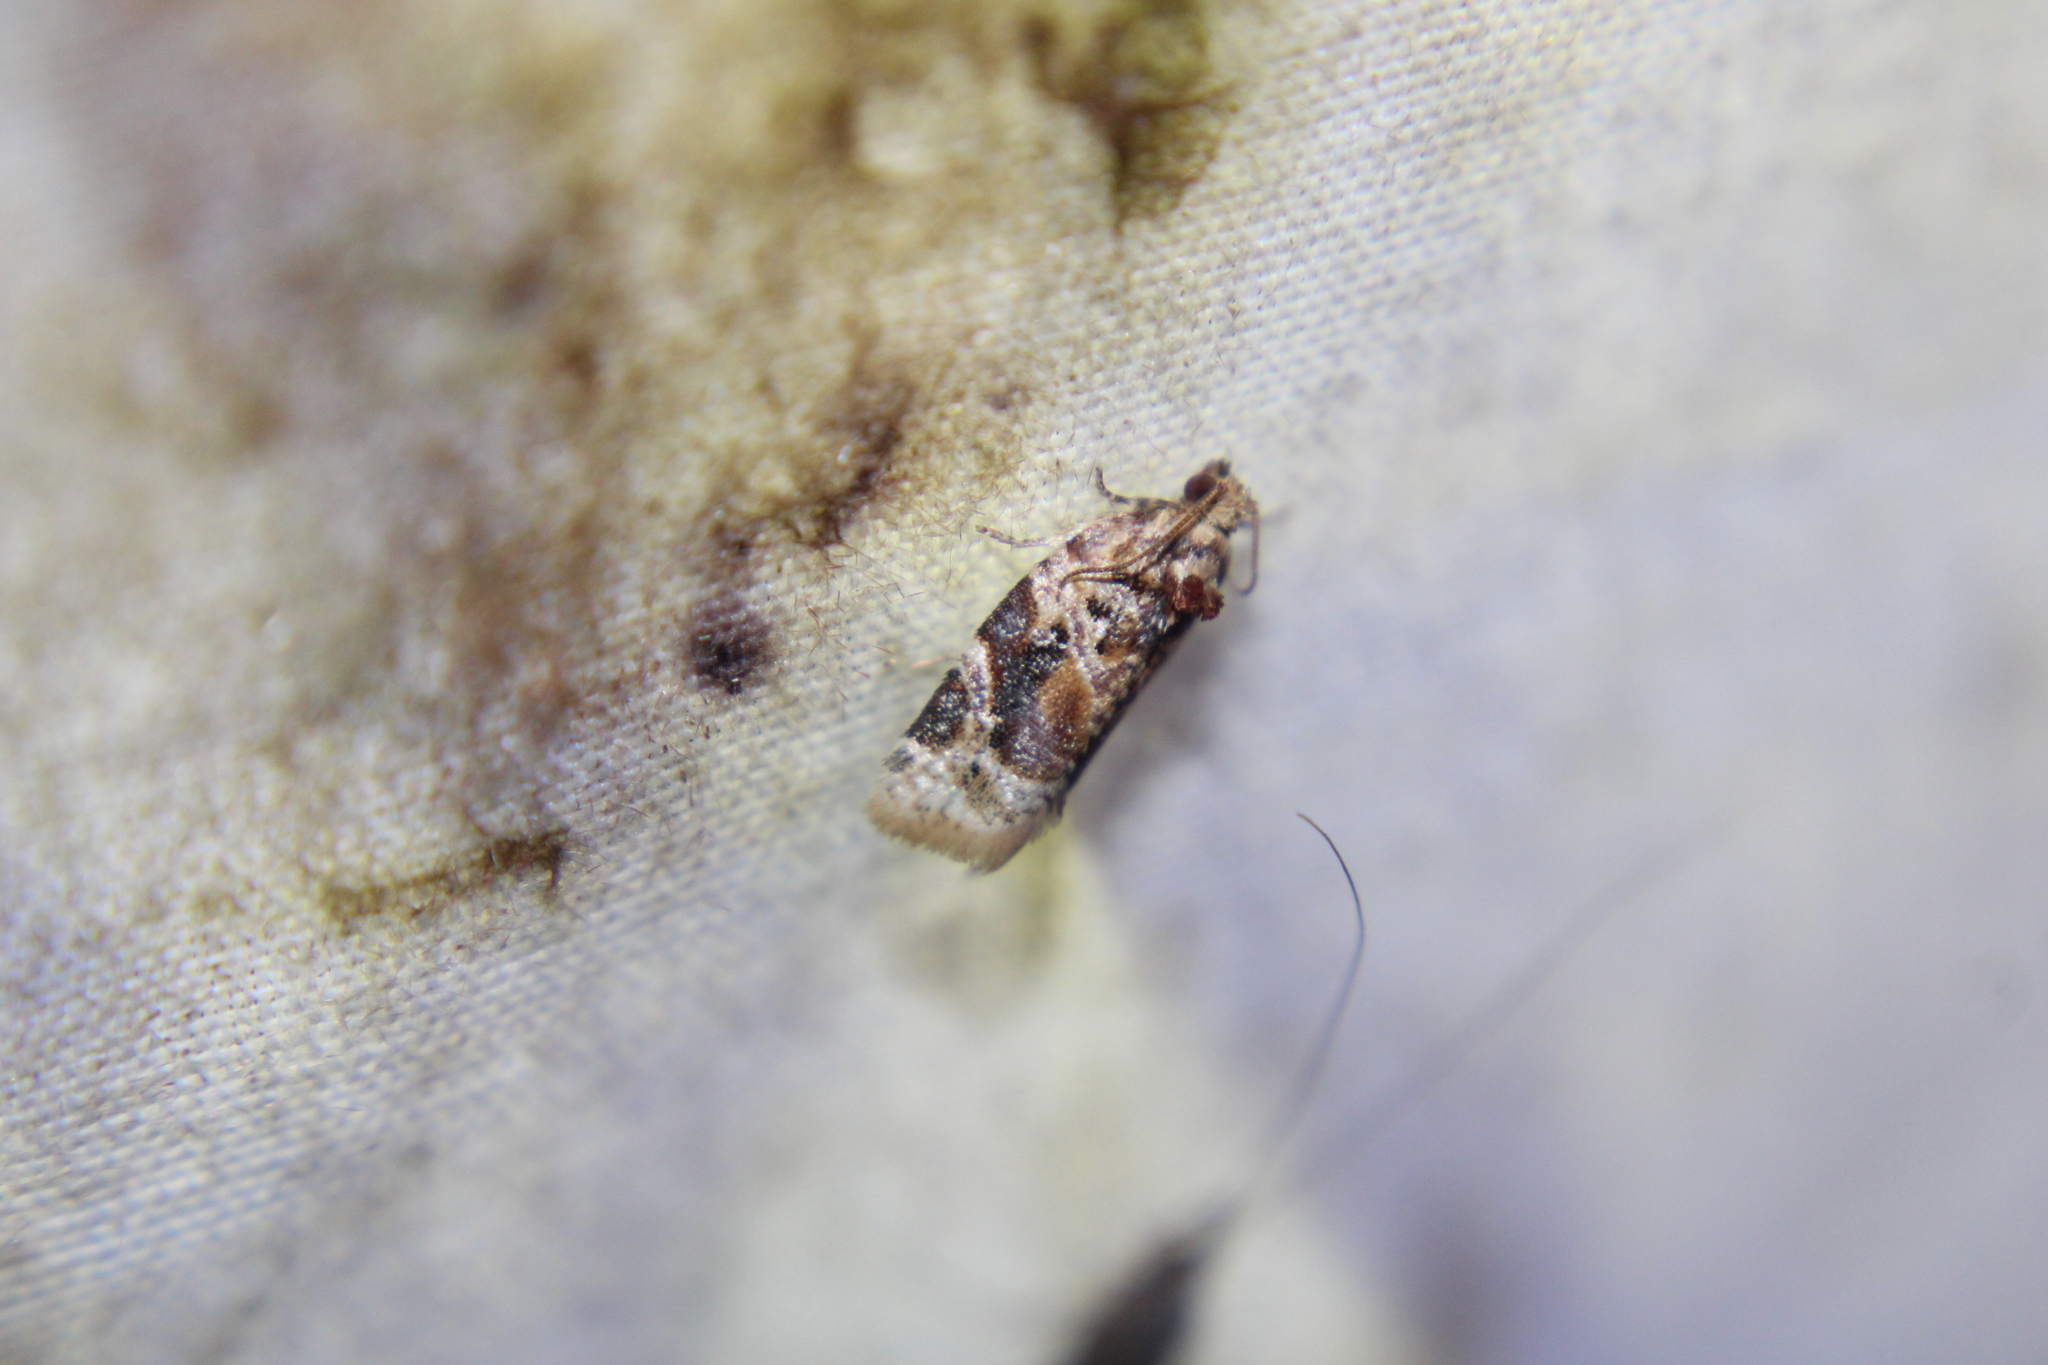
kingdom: Animalia
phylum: Arthropoda
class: Insecta
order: Lepidoptera
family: Tortricidae
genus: Argyrotaenia
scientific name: Argyrotaenia velutinana
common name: Red-banded leafroller moth
